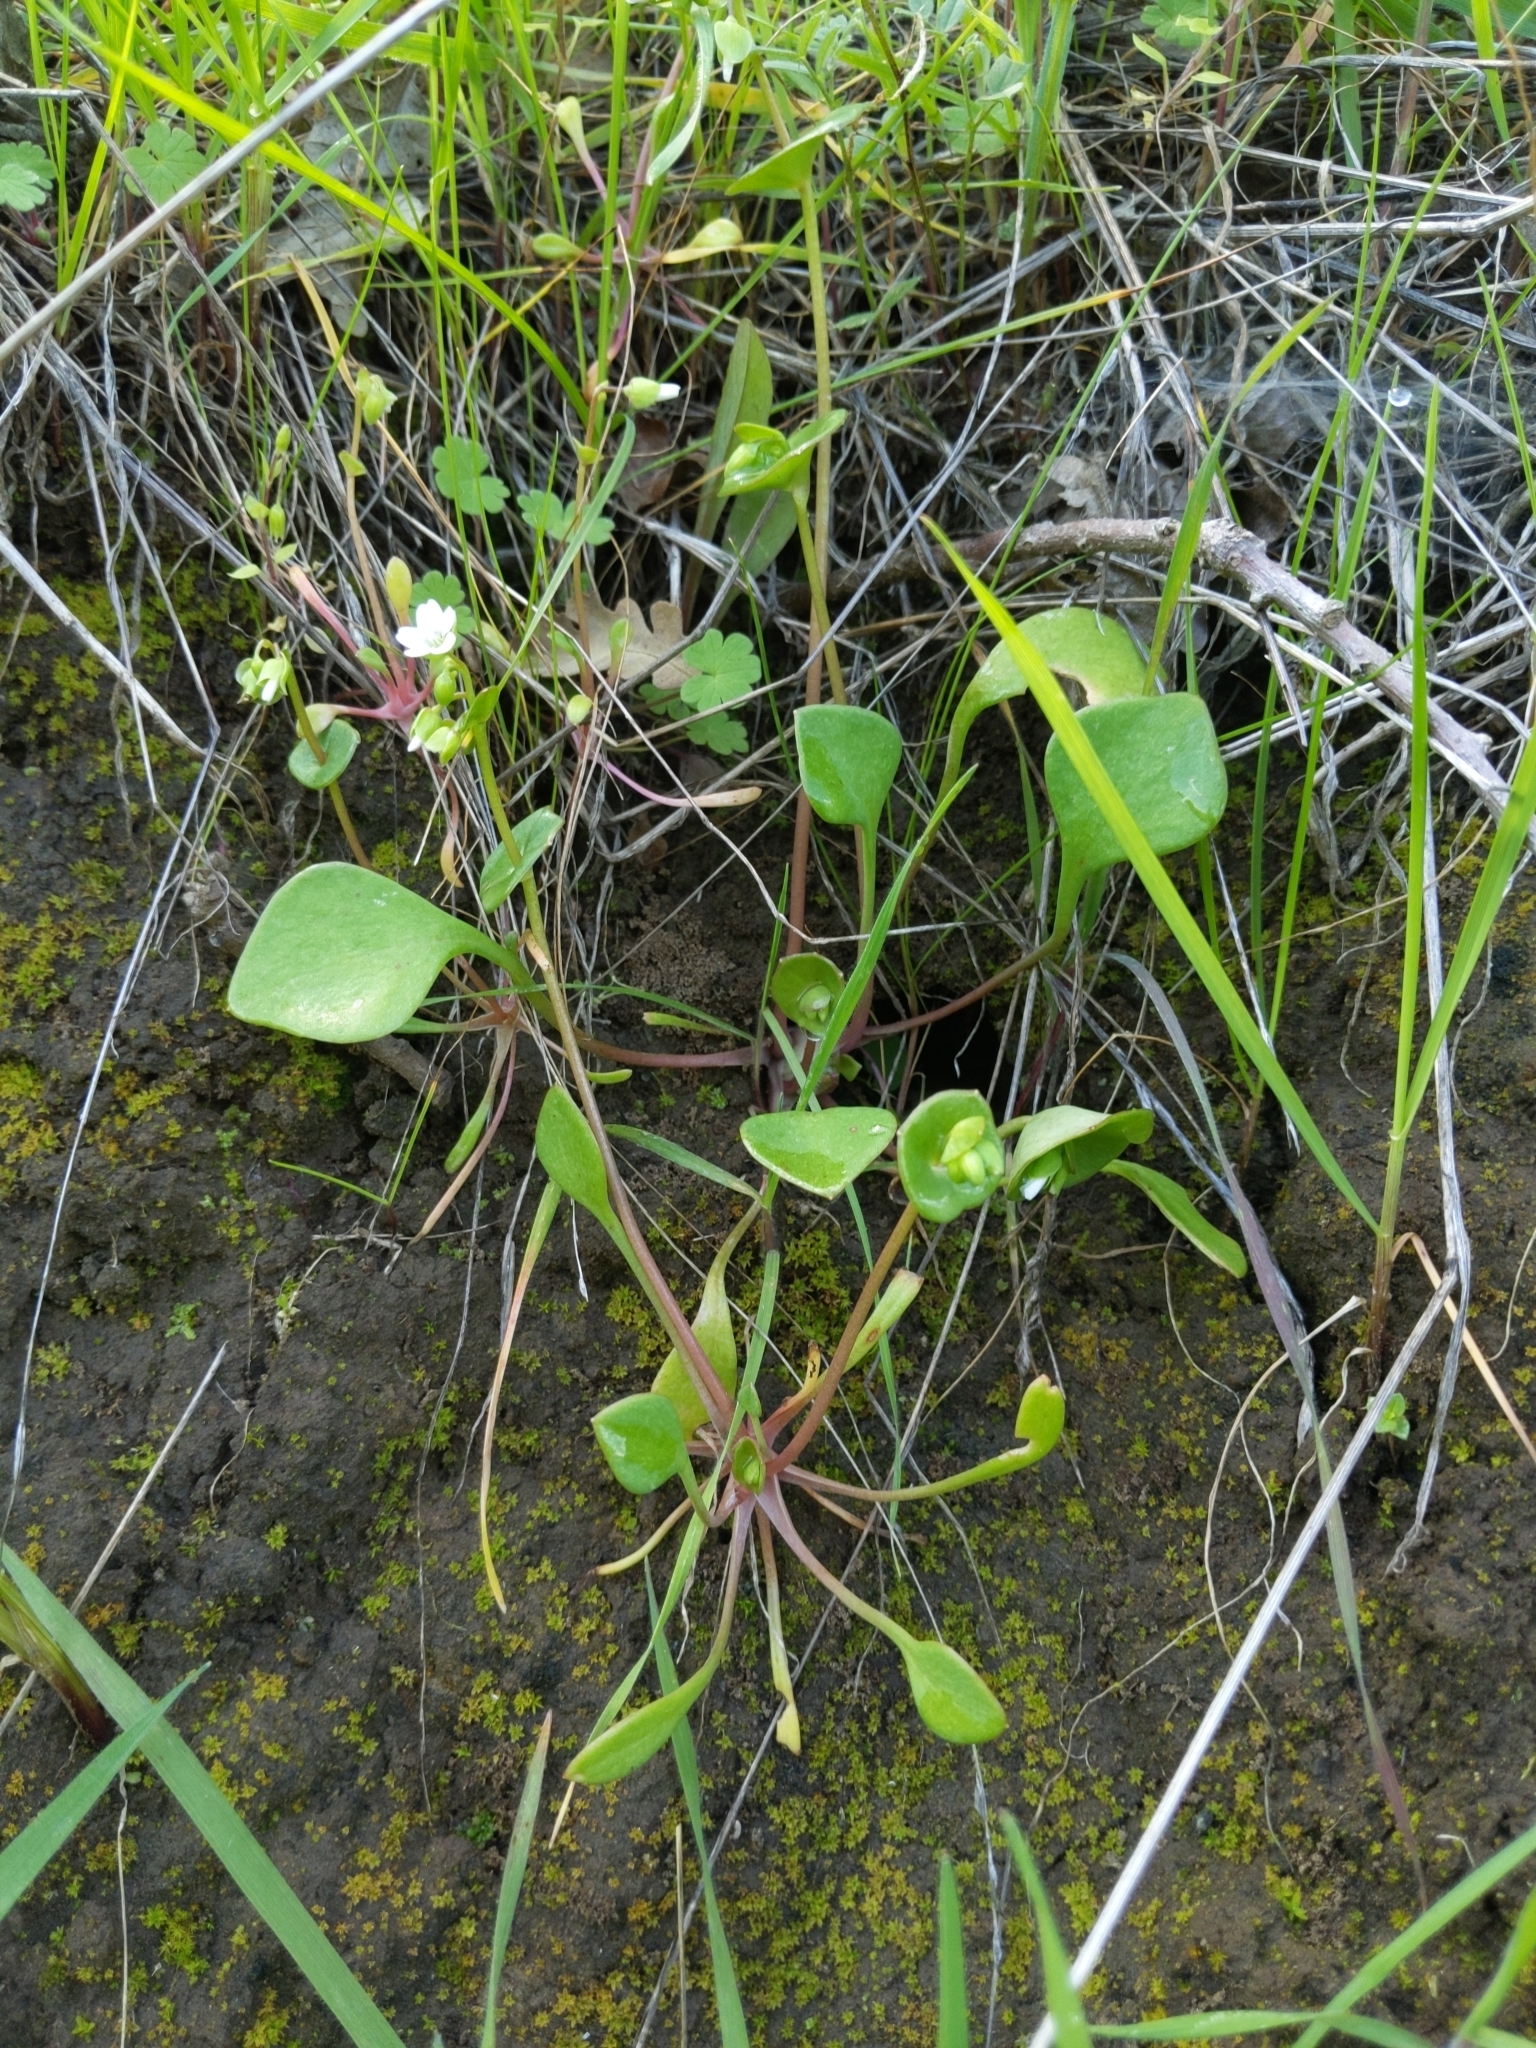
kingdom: Plantae
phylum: Tracheophyta
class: Magnoliopsida
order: Caryophyllales
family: Montiaceae
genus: Claytonia
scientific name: Claytonia perfoliata
